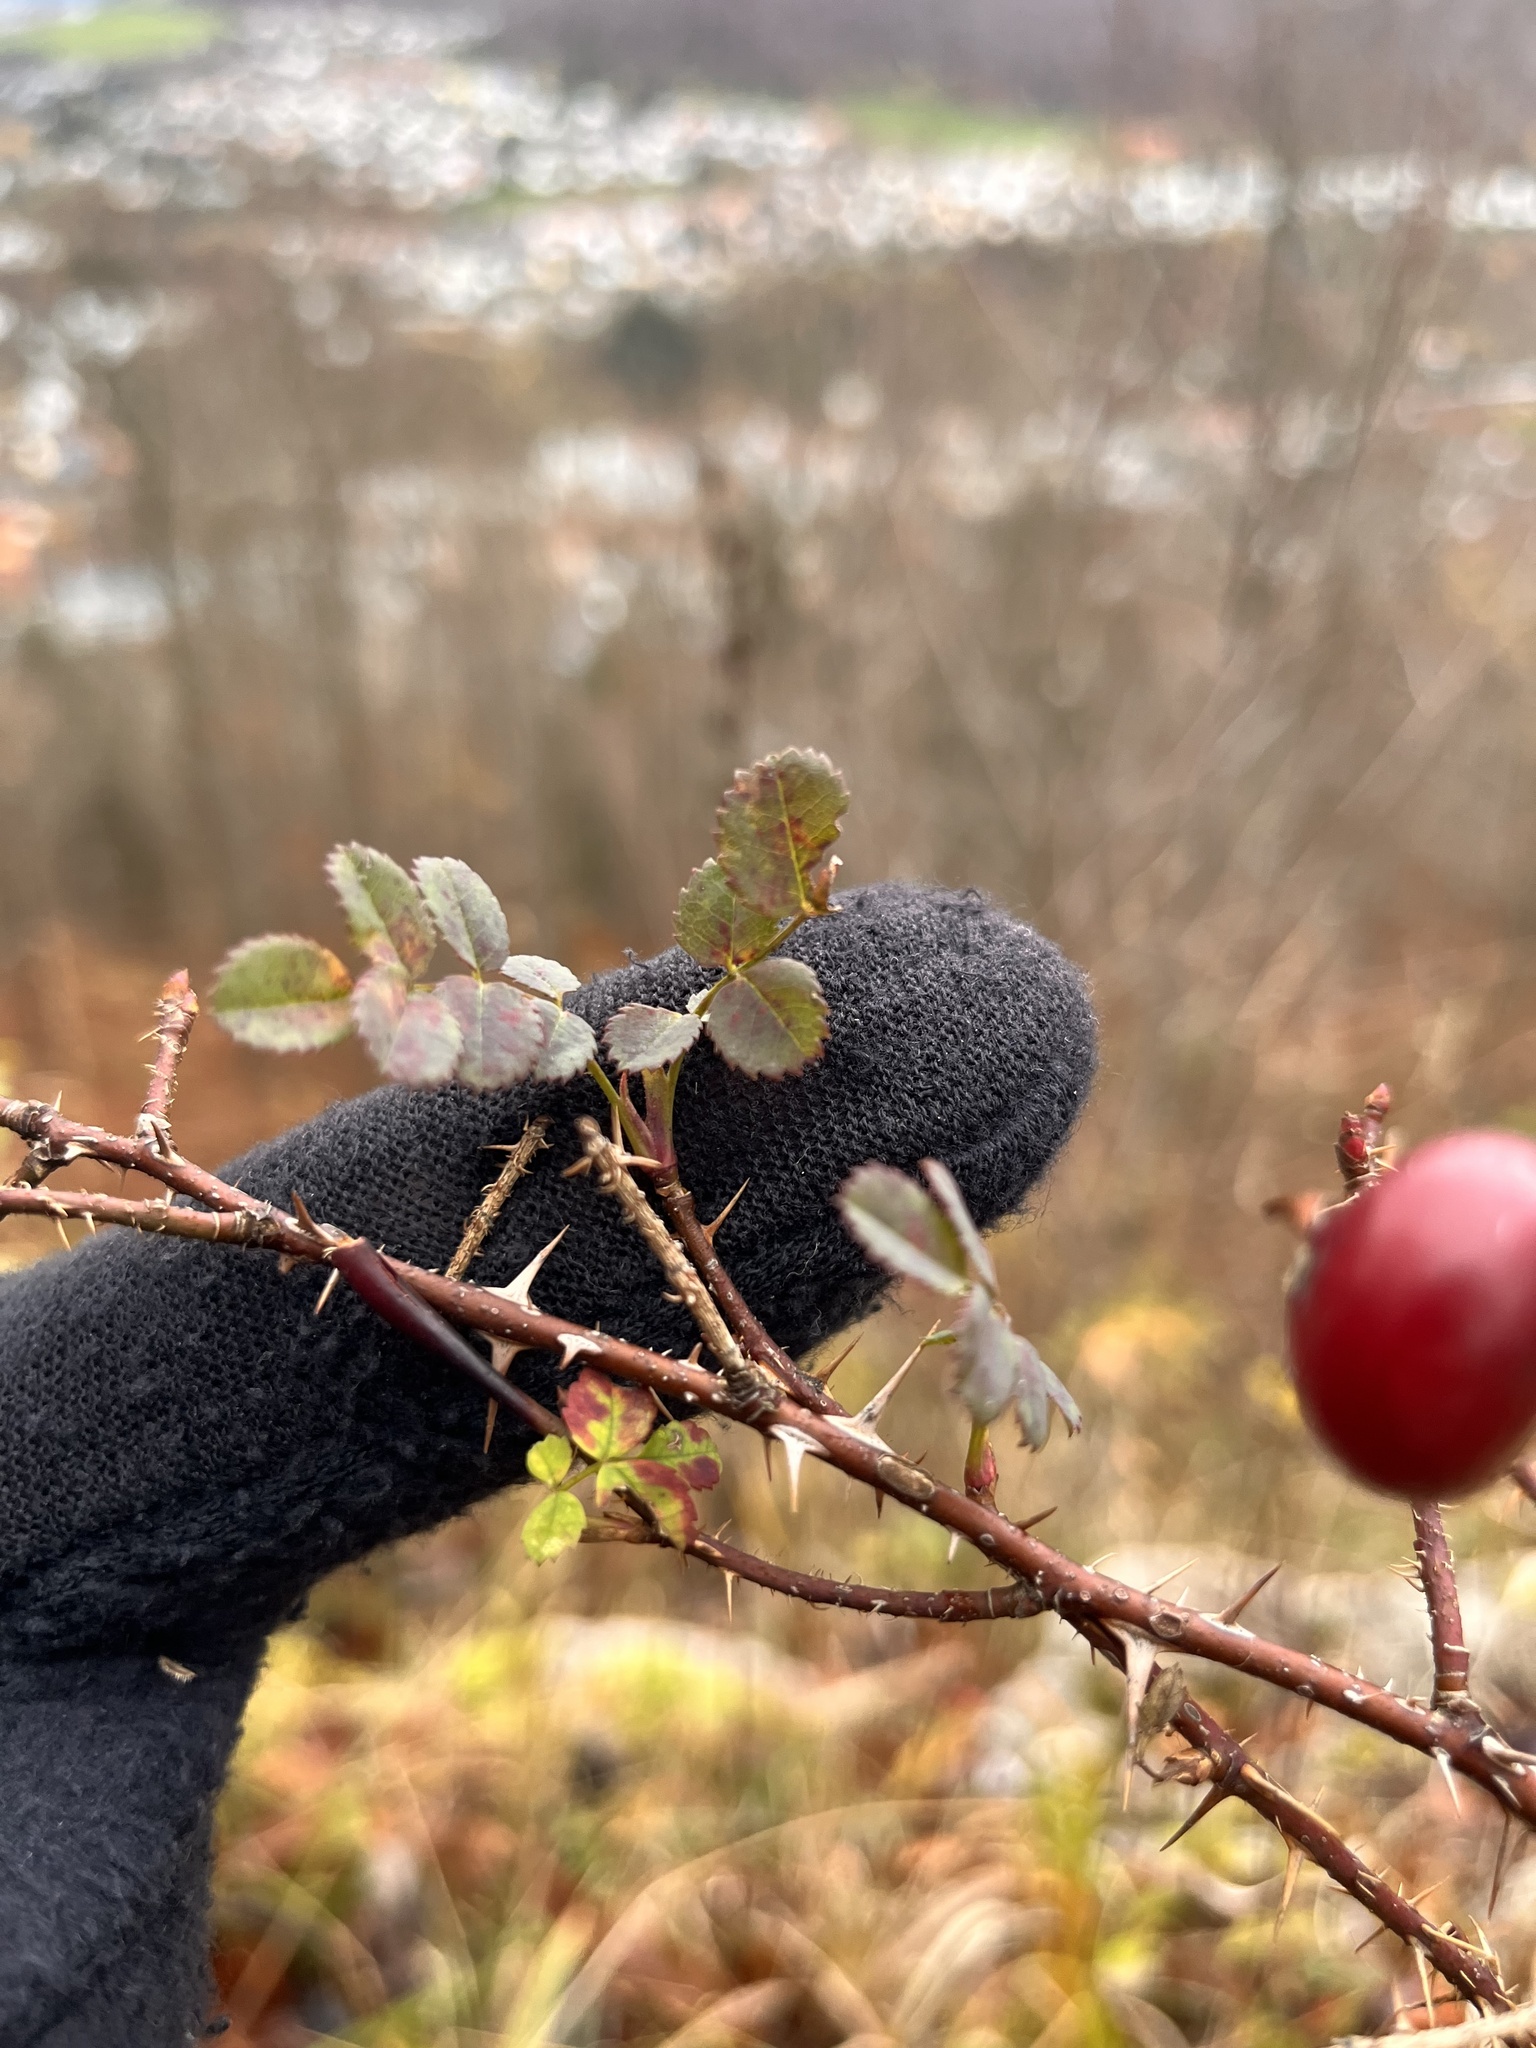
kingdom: Plantae
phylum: Tracheophyta
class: Magnoliopsida
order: Rosales
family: Rosaceae
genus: Rosa
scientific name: Rosa spinosissima
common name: Burnet rose
